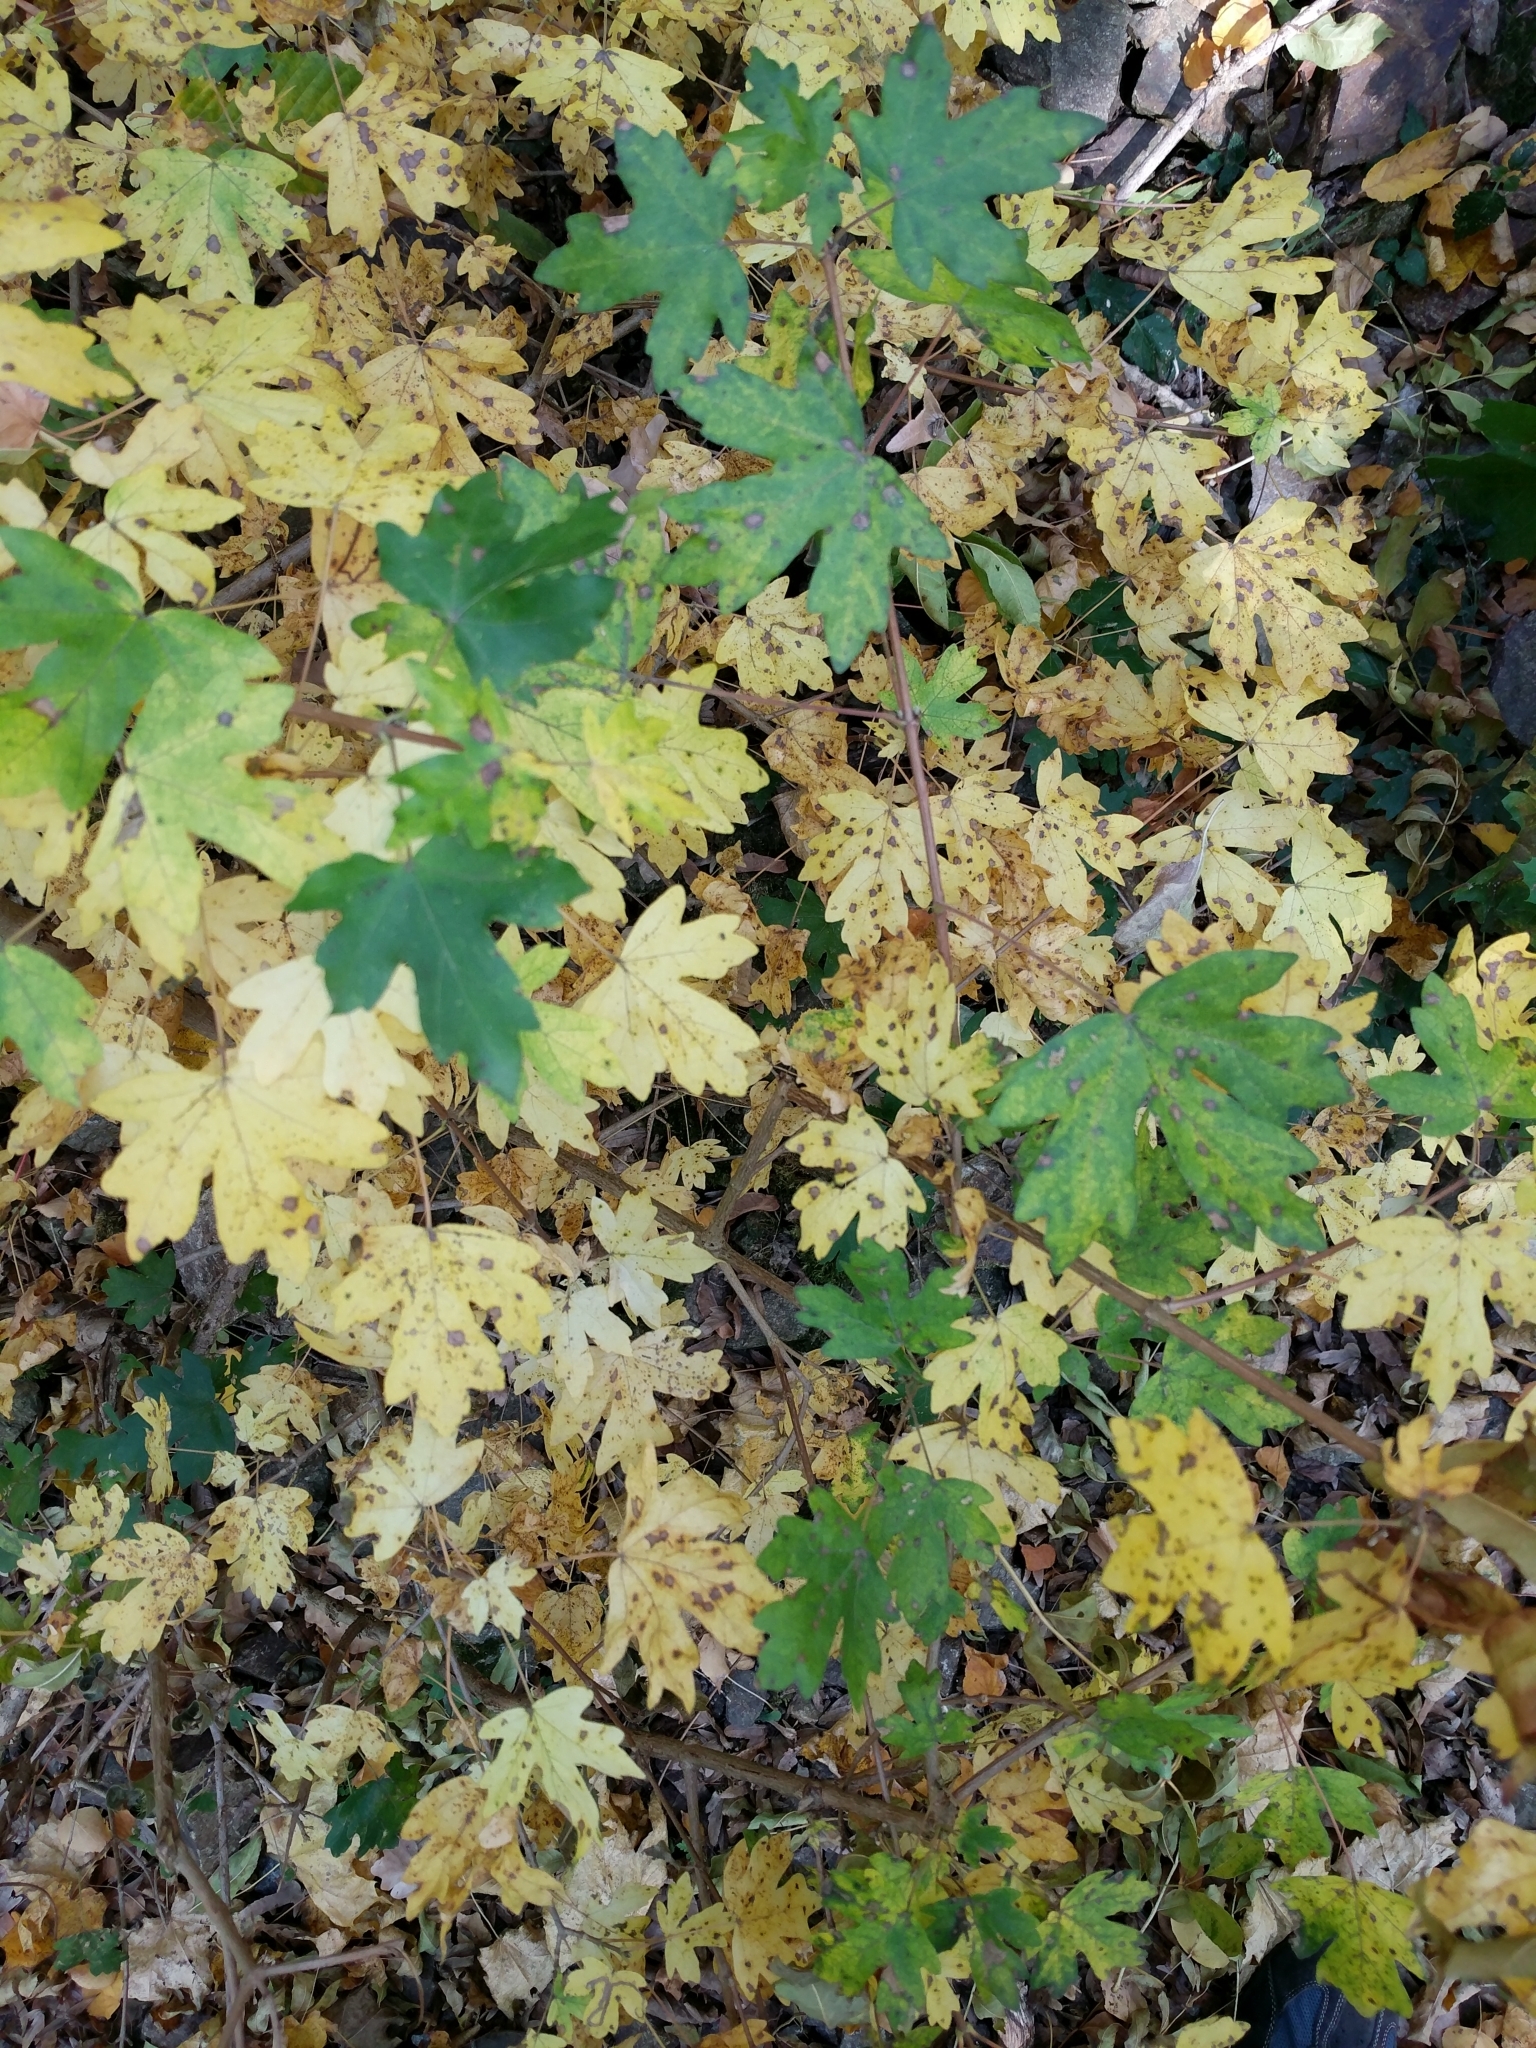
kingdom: Plantae
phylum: Tracheophyta
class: Magnoliopsida
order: Sapindales
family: Sapindaceae
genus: Acer
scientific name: Acer campestre
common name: Field maple
